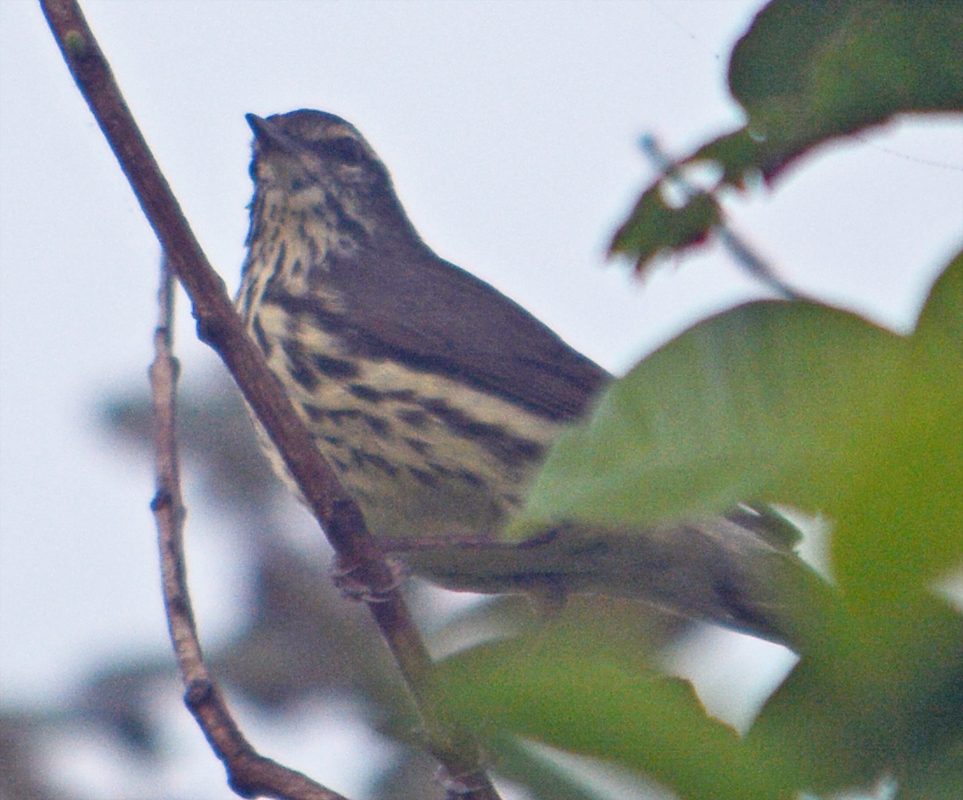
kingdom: Animalia
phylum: Chordata
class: Aves
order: Passeriformes
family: Parulidae
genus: Parkesia
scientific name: Parkesia noveboracensis
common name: Northern waterthrush
